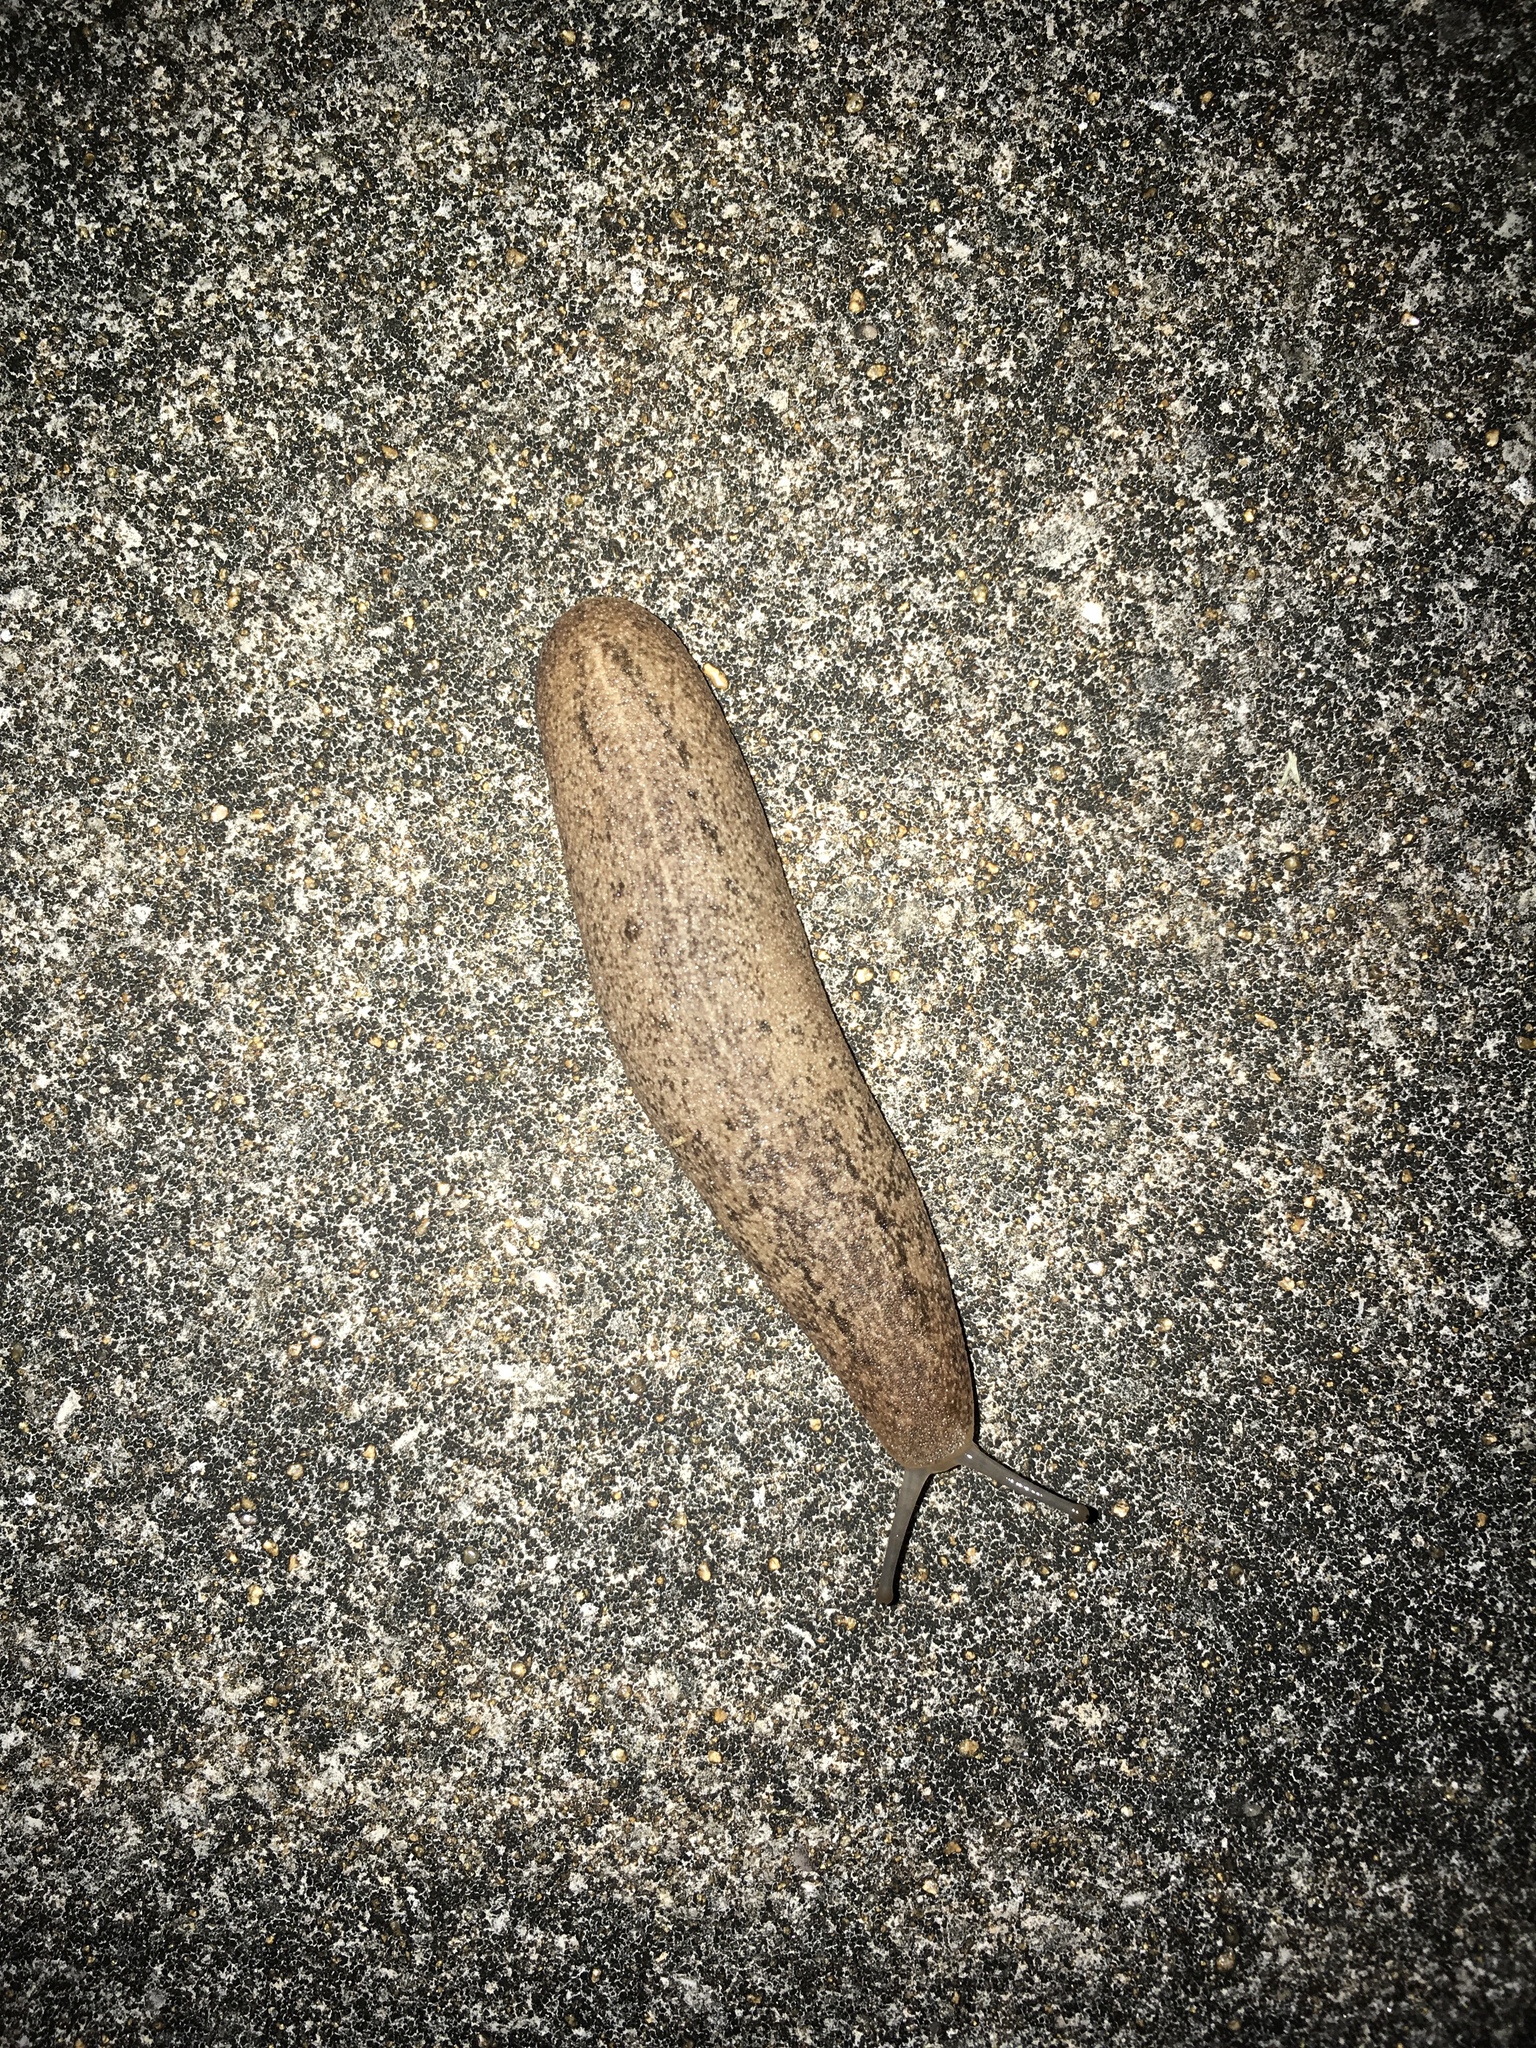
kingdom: Animalia
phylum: Mollusca
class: Gastropoda
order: Systellommatophora
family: Veronicellidae
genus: Leidyula
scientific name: Leidyula floridana
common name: Florida leatherleaf
